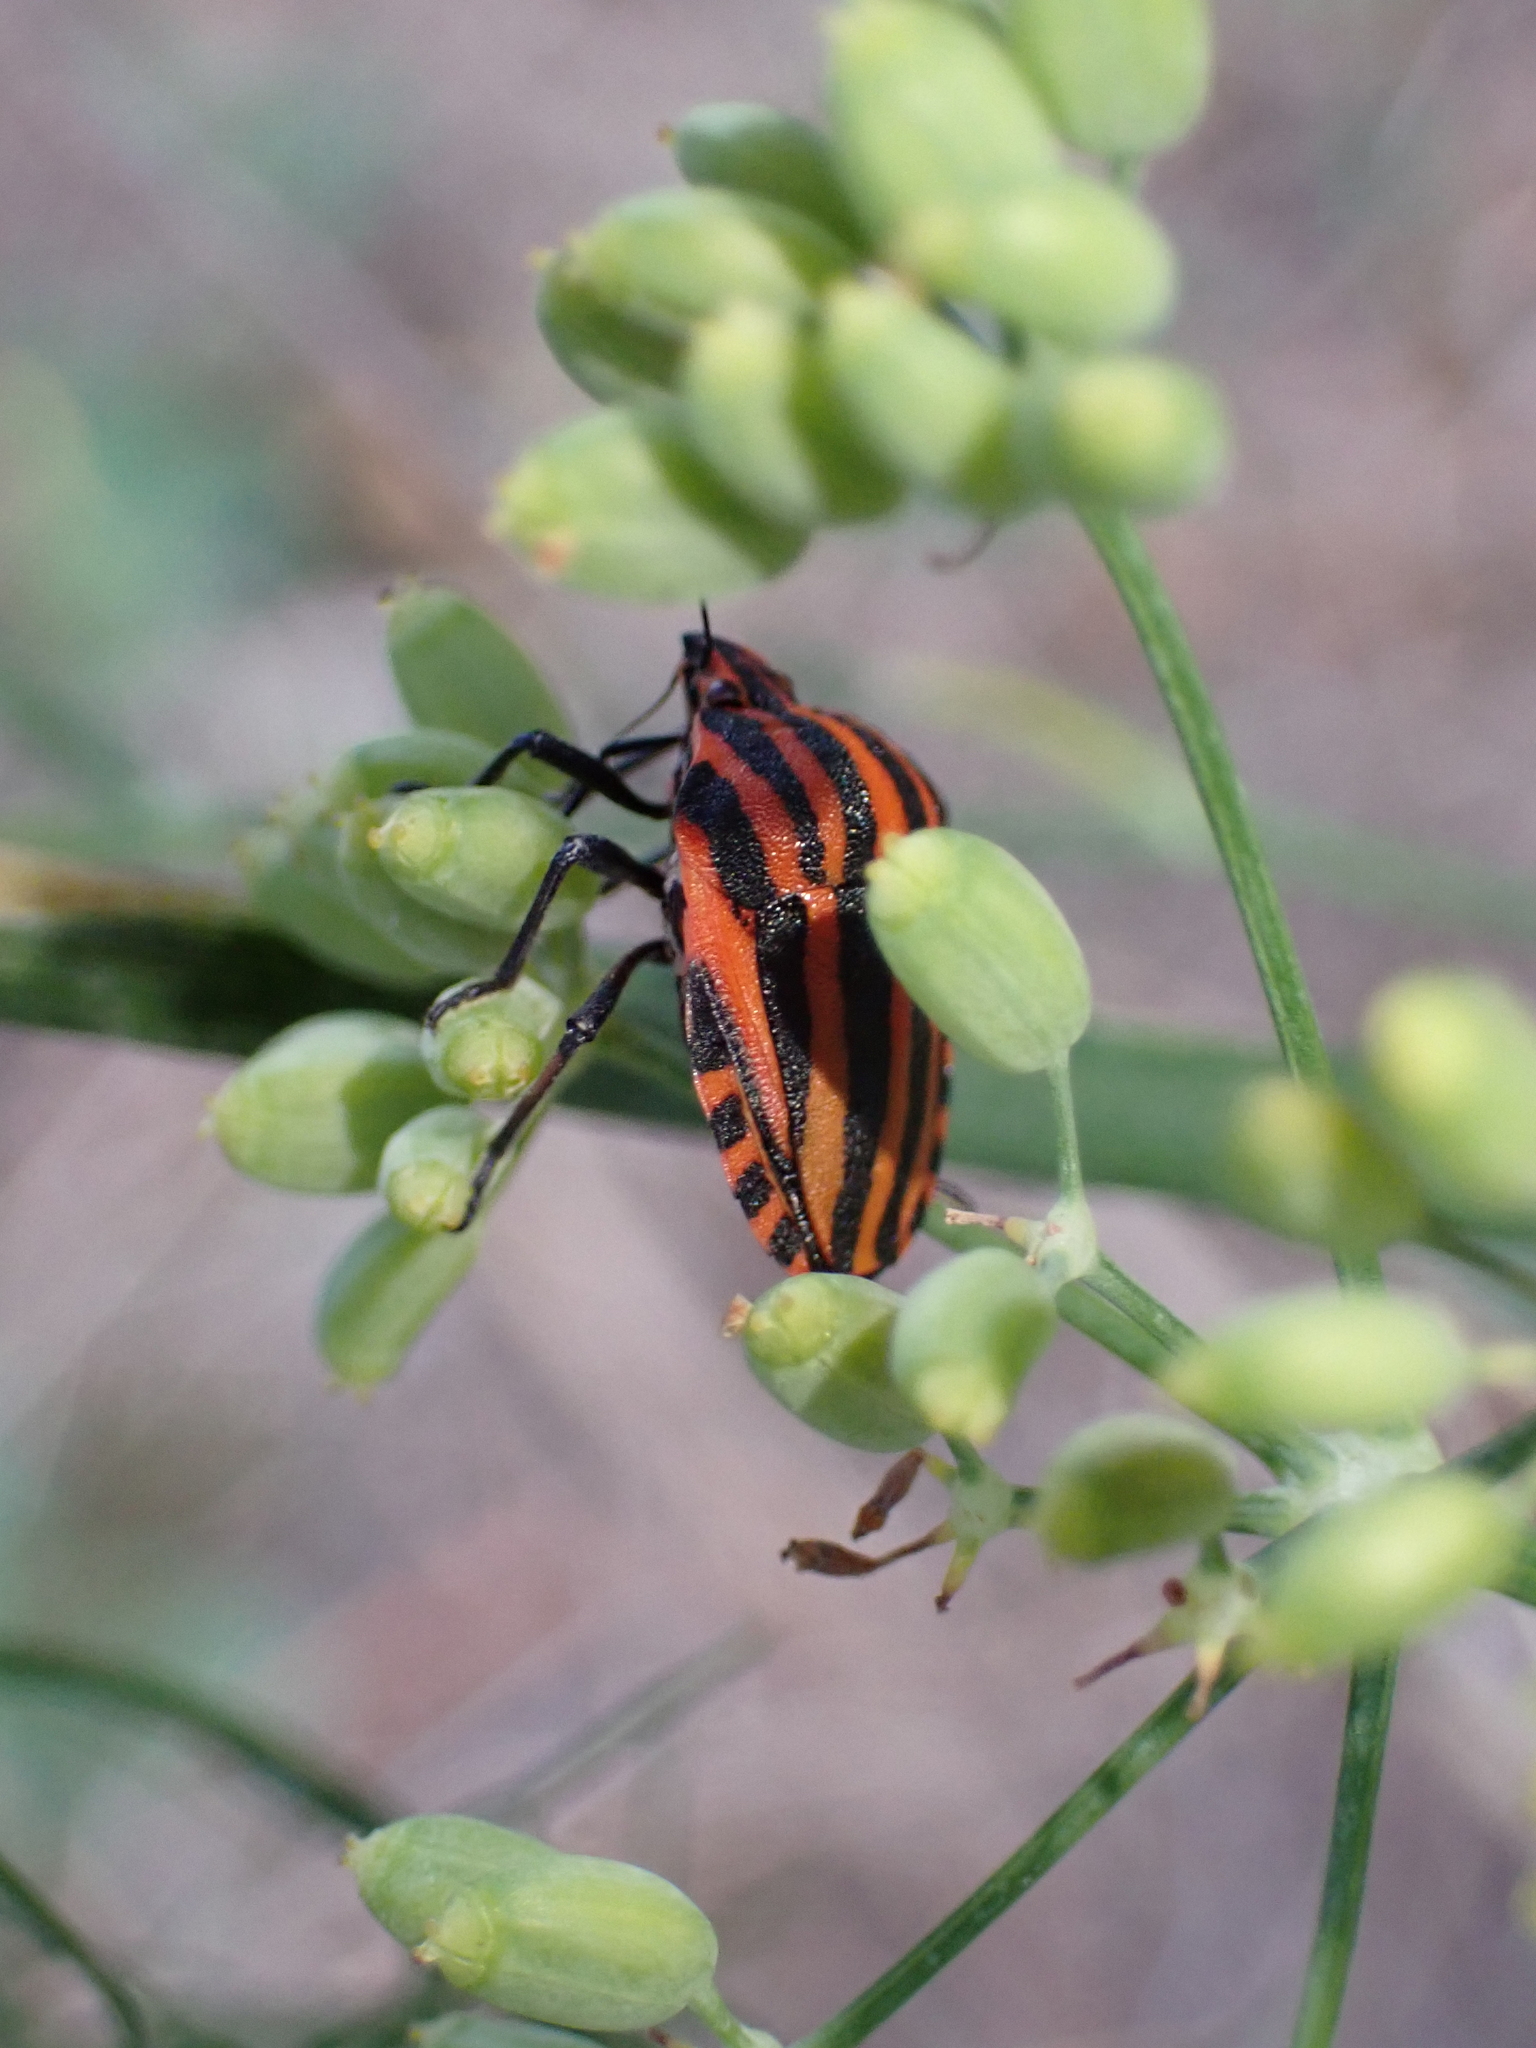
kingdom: Animalia
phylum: Arthropoda
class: Insecta
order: Hemiptera
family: Pentatomidae
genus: Graphosoma
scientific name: Graphosoma italicum
